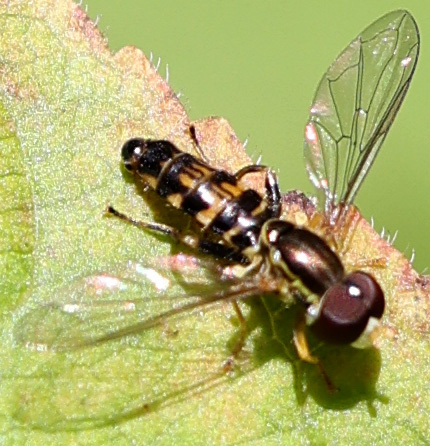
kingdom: Animalia
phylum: Arthropoda
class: Insecta
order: Diptera
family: Syrphidae
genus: Toxomerus
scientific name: Toxomerus geminatus
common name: Eastern calligrapher
